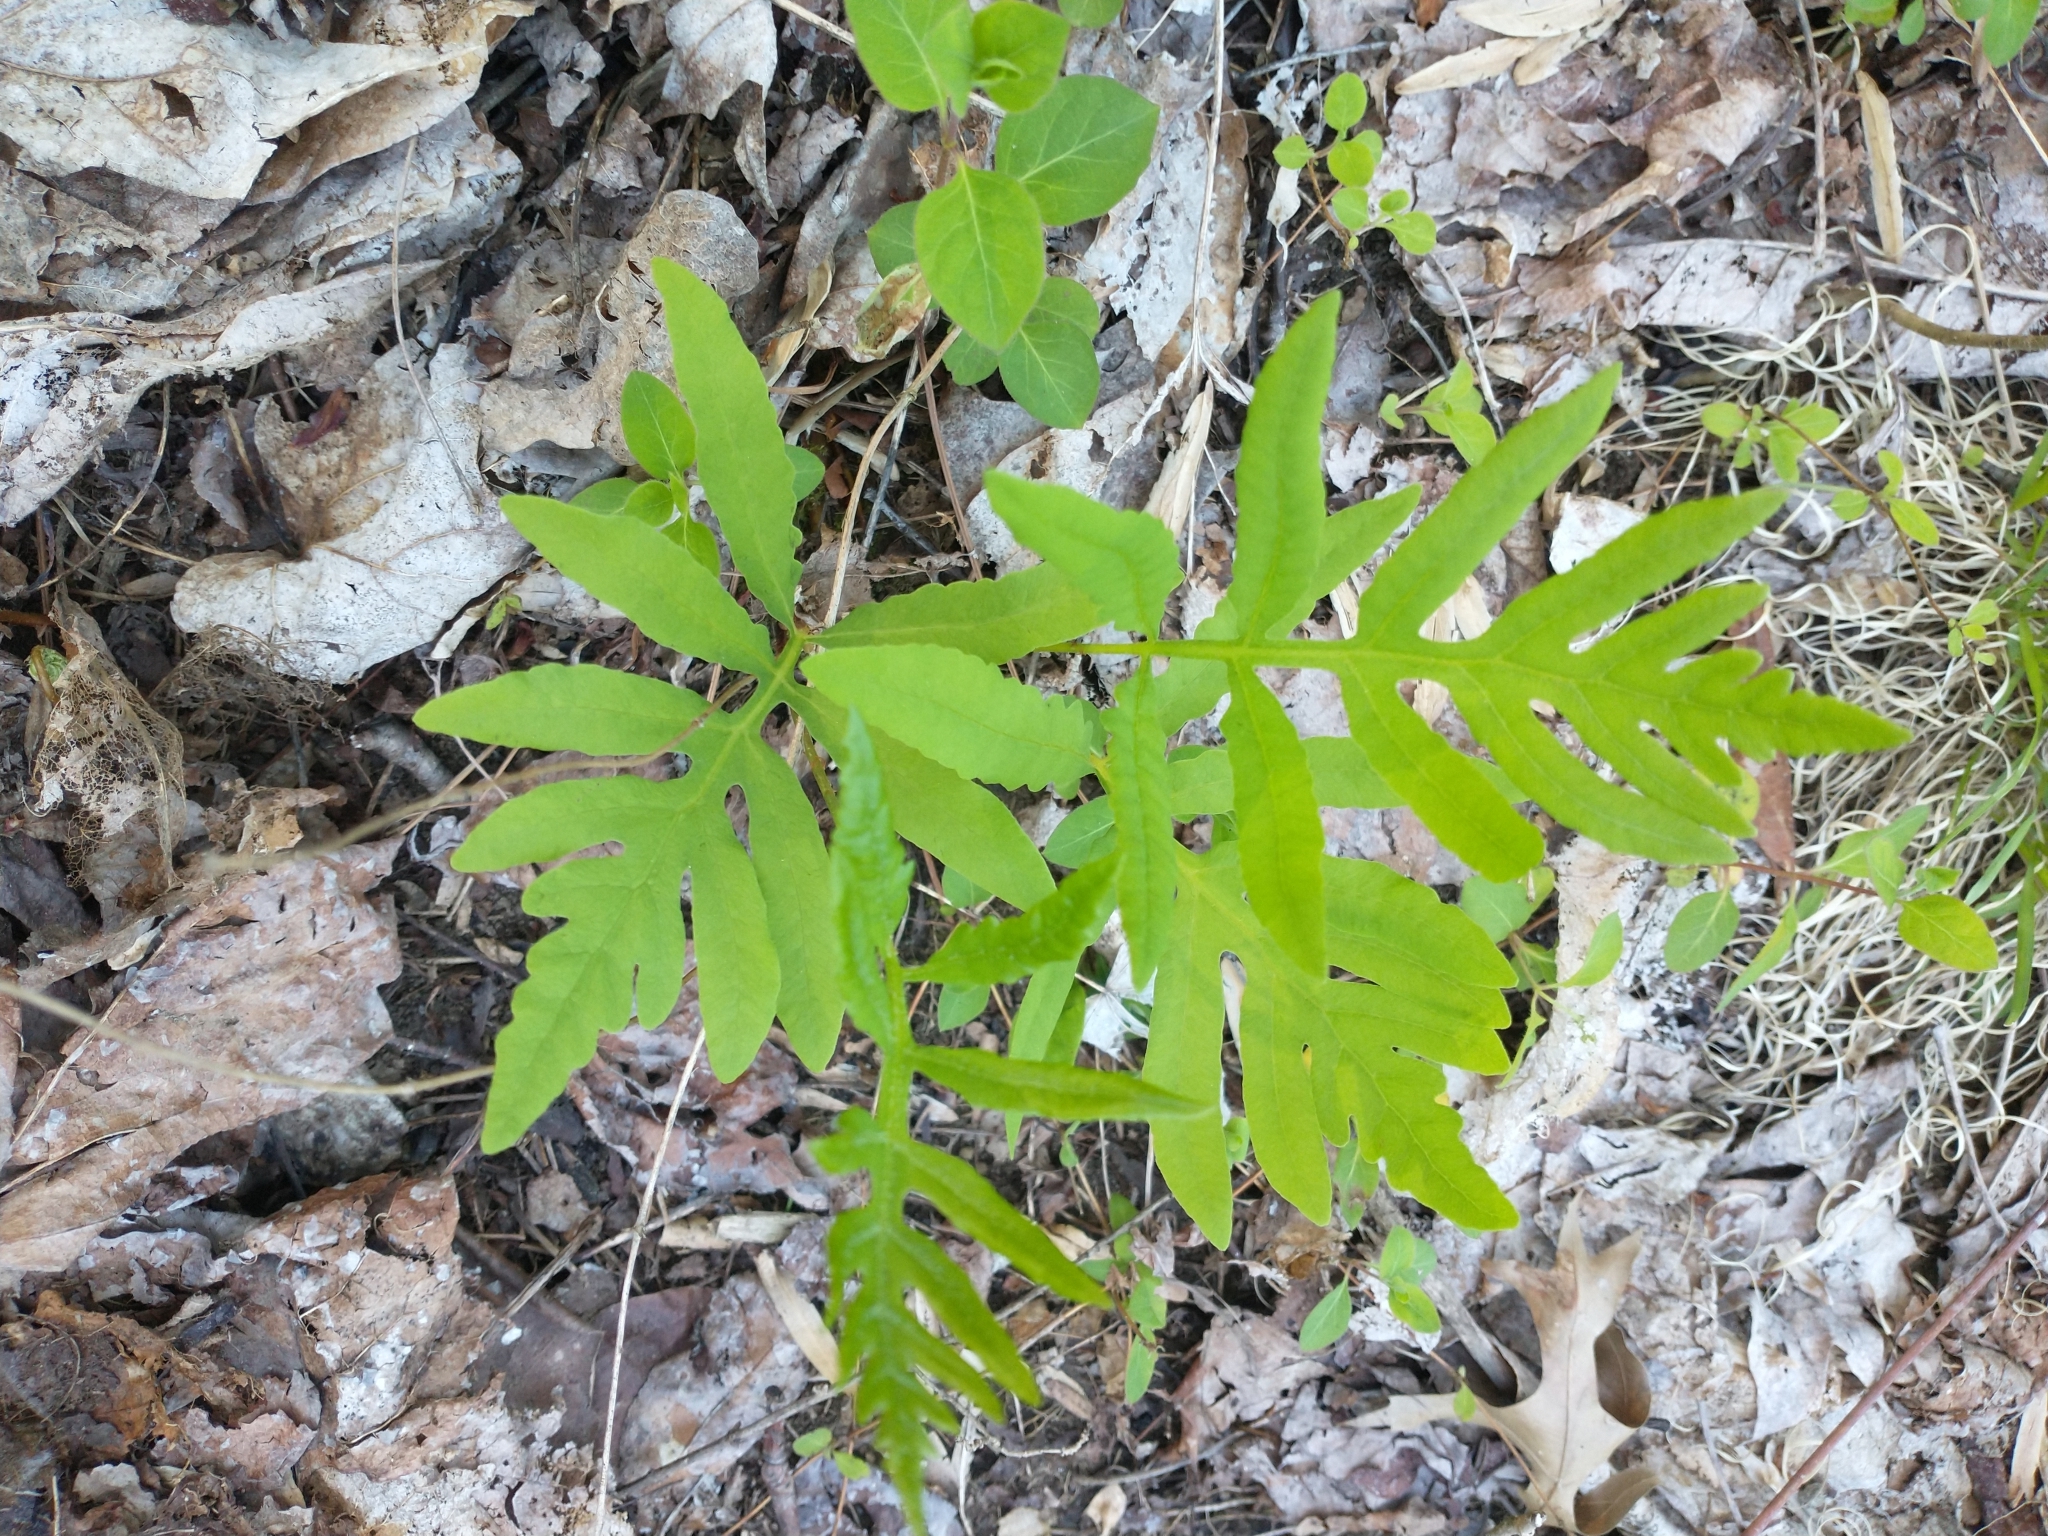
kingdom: Plantae
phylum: Tracheophyta
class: Polypodiopsida
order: Polypodiales
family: Onocleaceae
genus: Onoclea
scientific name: Onoclea sensibilis
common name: Sensitive fern
